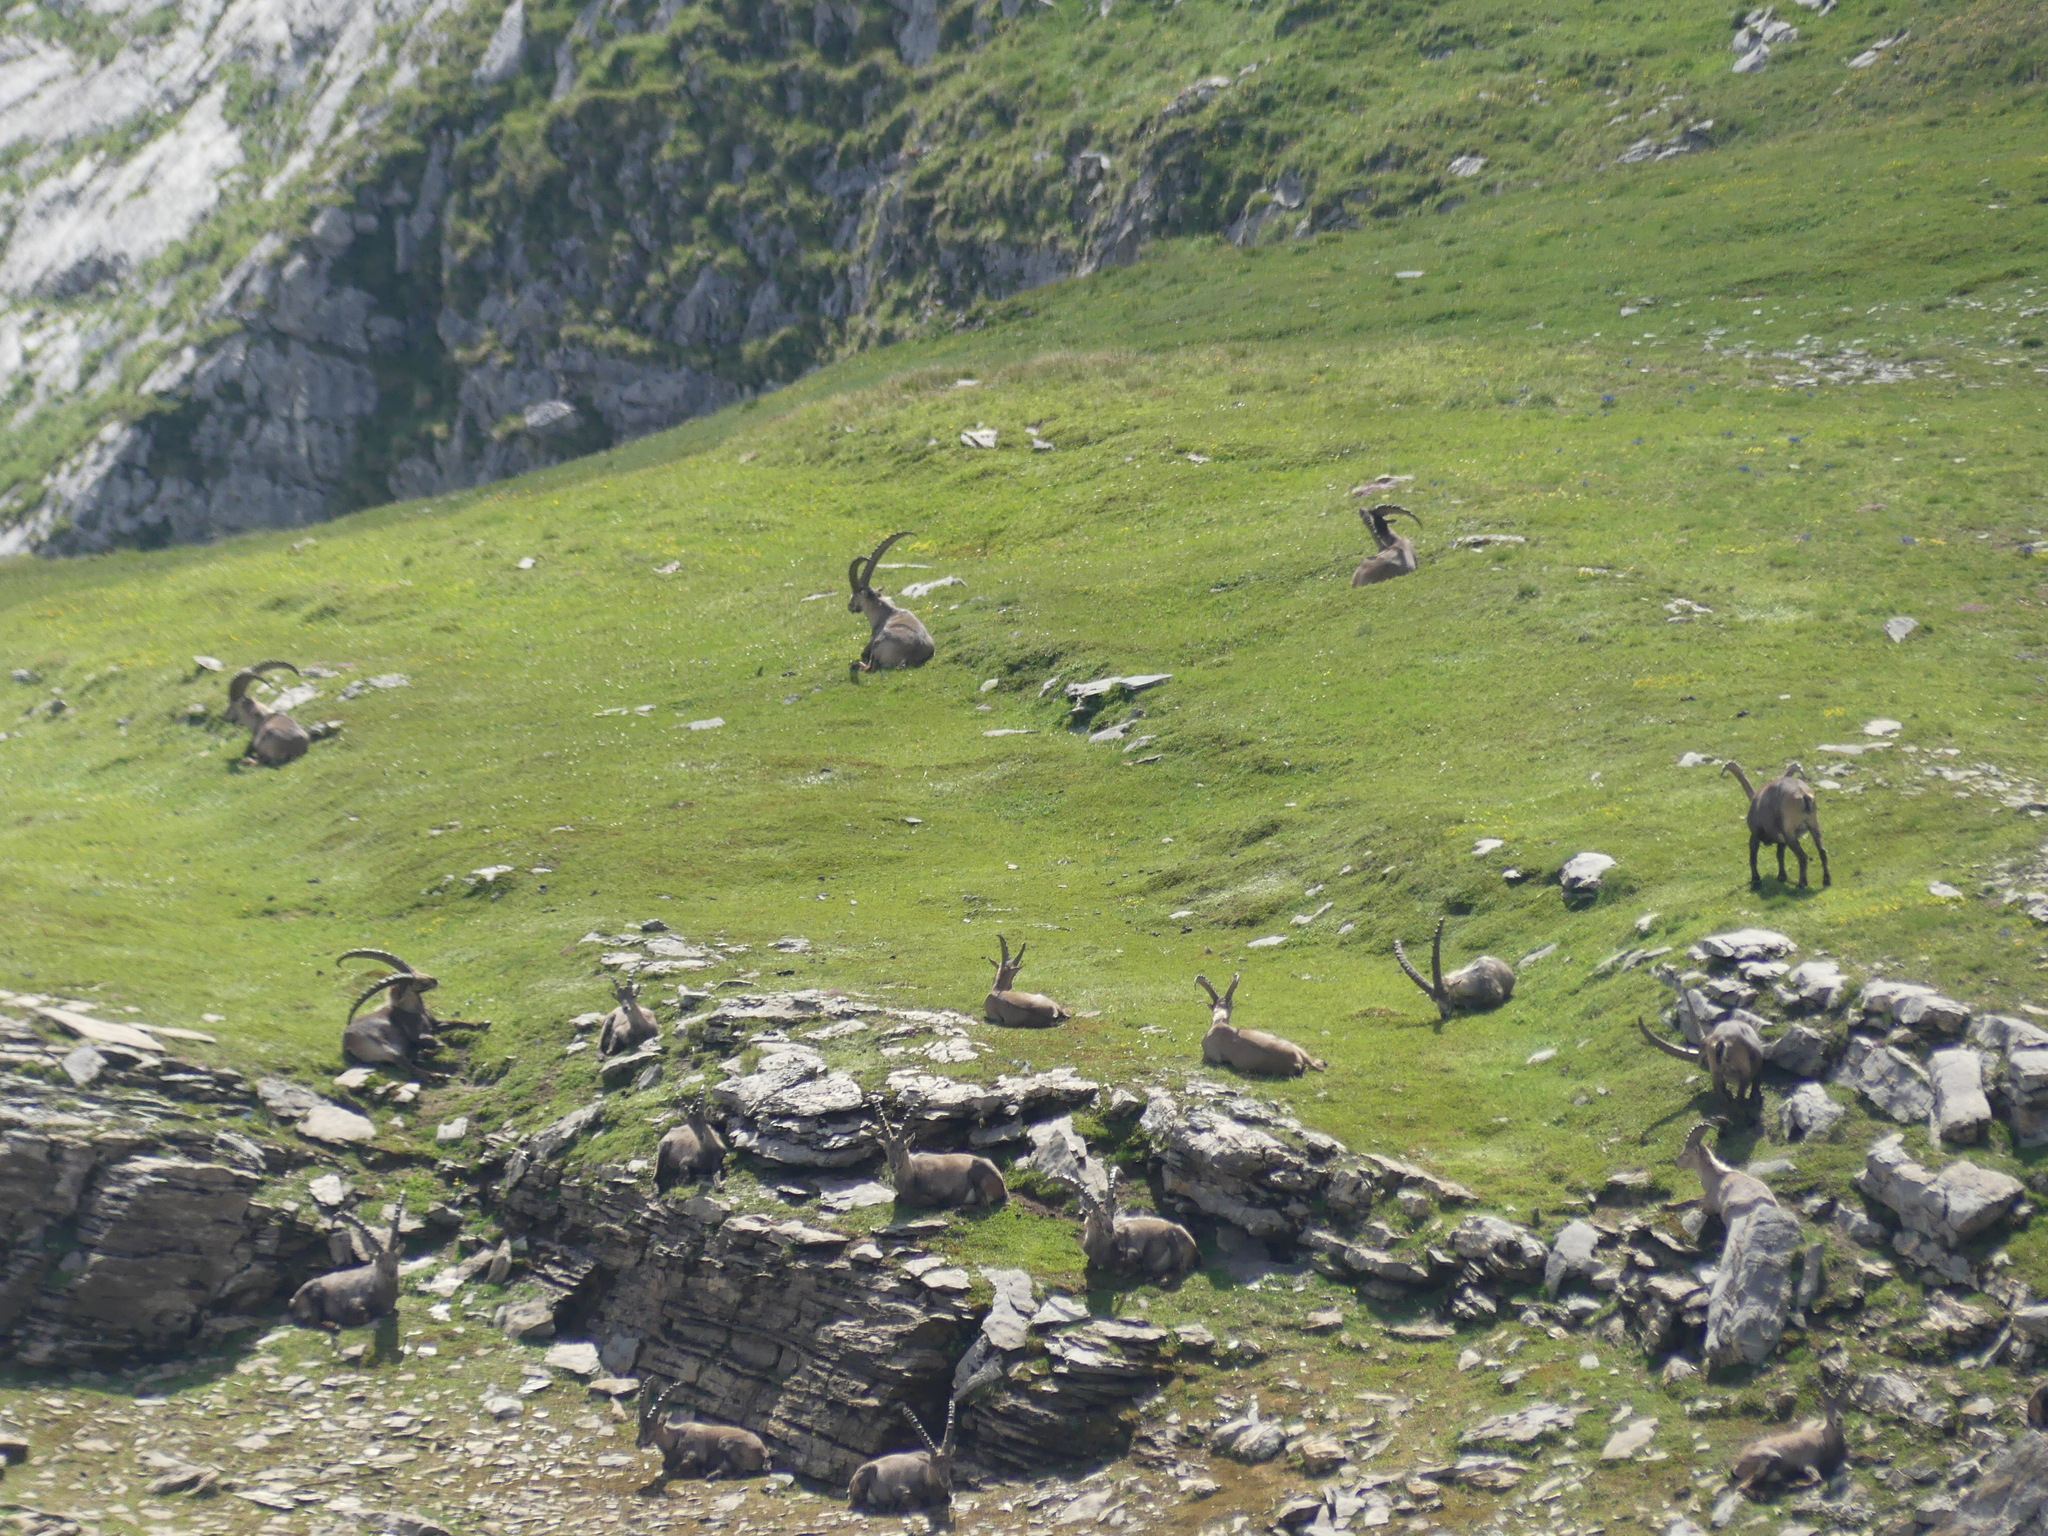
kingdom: Animalia
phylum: Chordata
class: Mammalia
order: Artiodactyla
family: Bovidae
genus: Capra
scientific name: Capra ibex
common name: Alpine ibex
